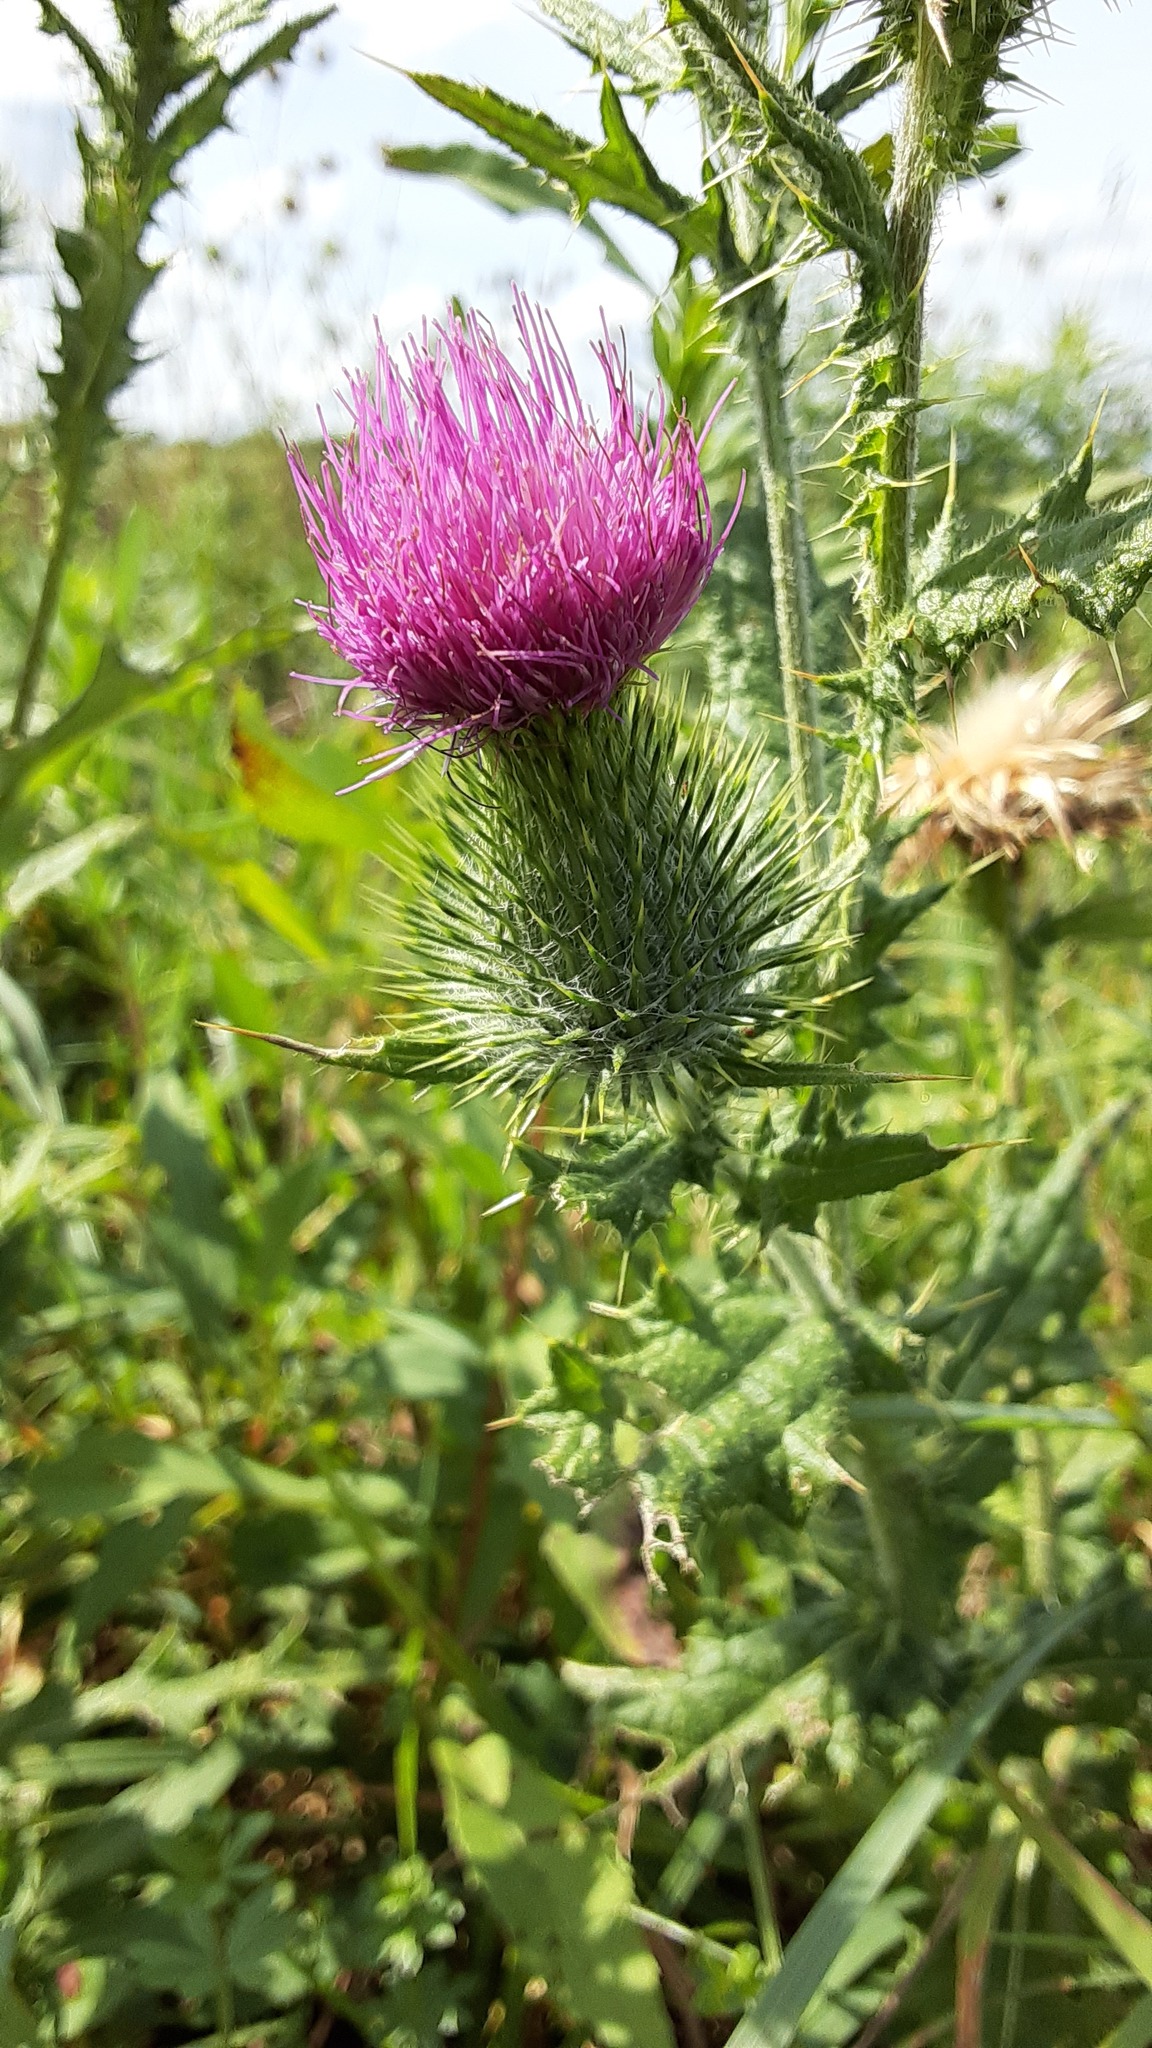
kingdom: Plantae
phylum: Tracheophyta
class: Magnoliopsida
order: Asterales
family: Asteraceae
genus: Cirsium
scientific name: Cirsium vulgare
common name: Bull thistle
